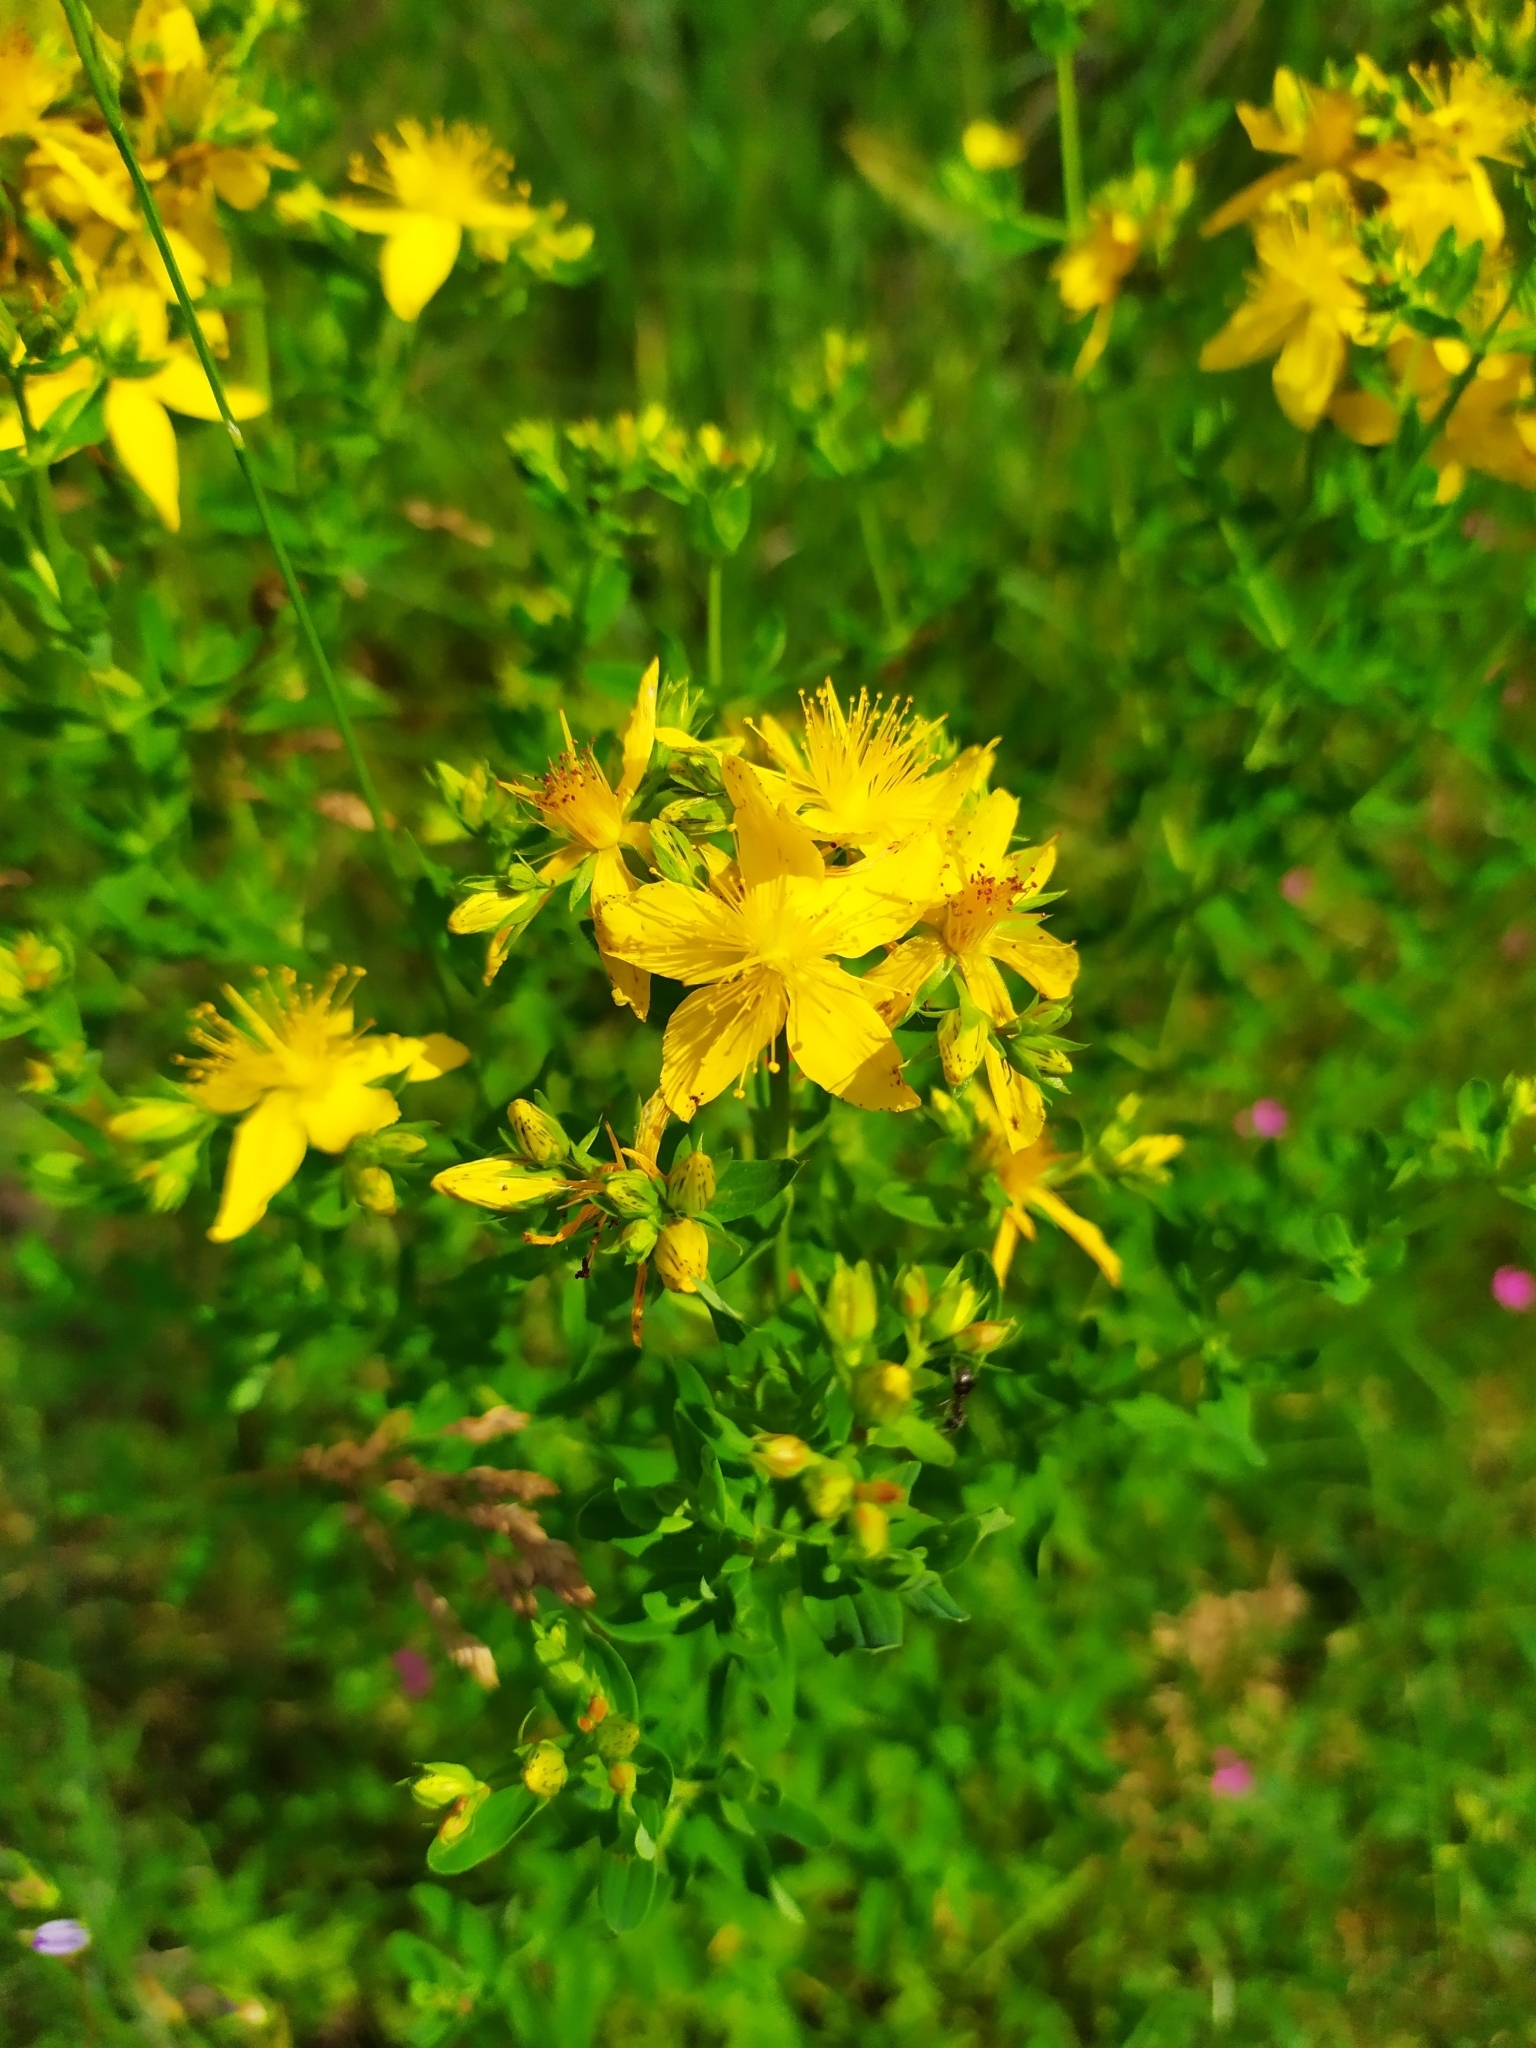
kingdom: Plantae
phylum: Tracheophyta
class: Magnoliopsida
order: Malpighiales
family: Hypericaceae
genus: Hypericum
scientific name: Hypericum perforatum
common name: Common st. johnswort
